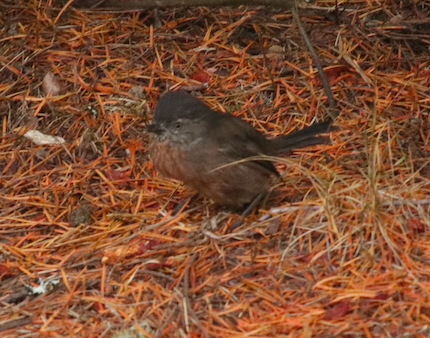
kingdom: Animalia
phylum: Chordata
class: Aves
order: Passeriformes
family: Sylviidae
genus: Chamaea
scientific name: Chamaea fasciata
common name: Wrentit
